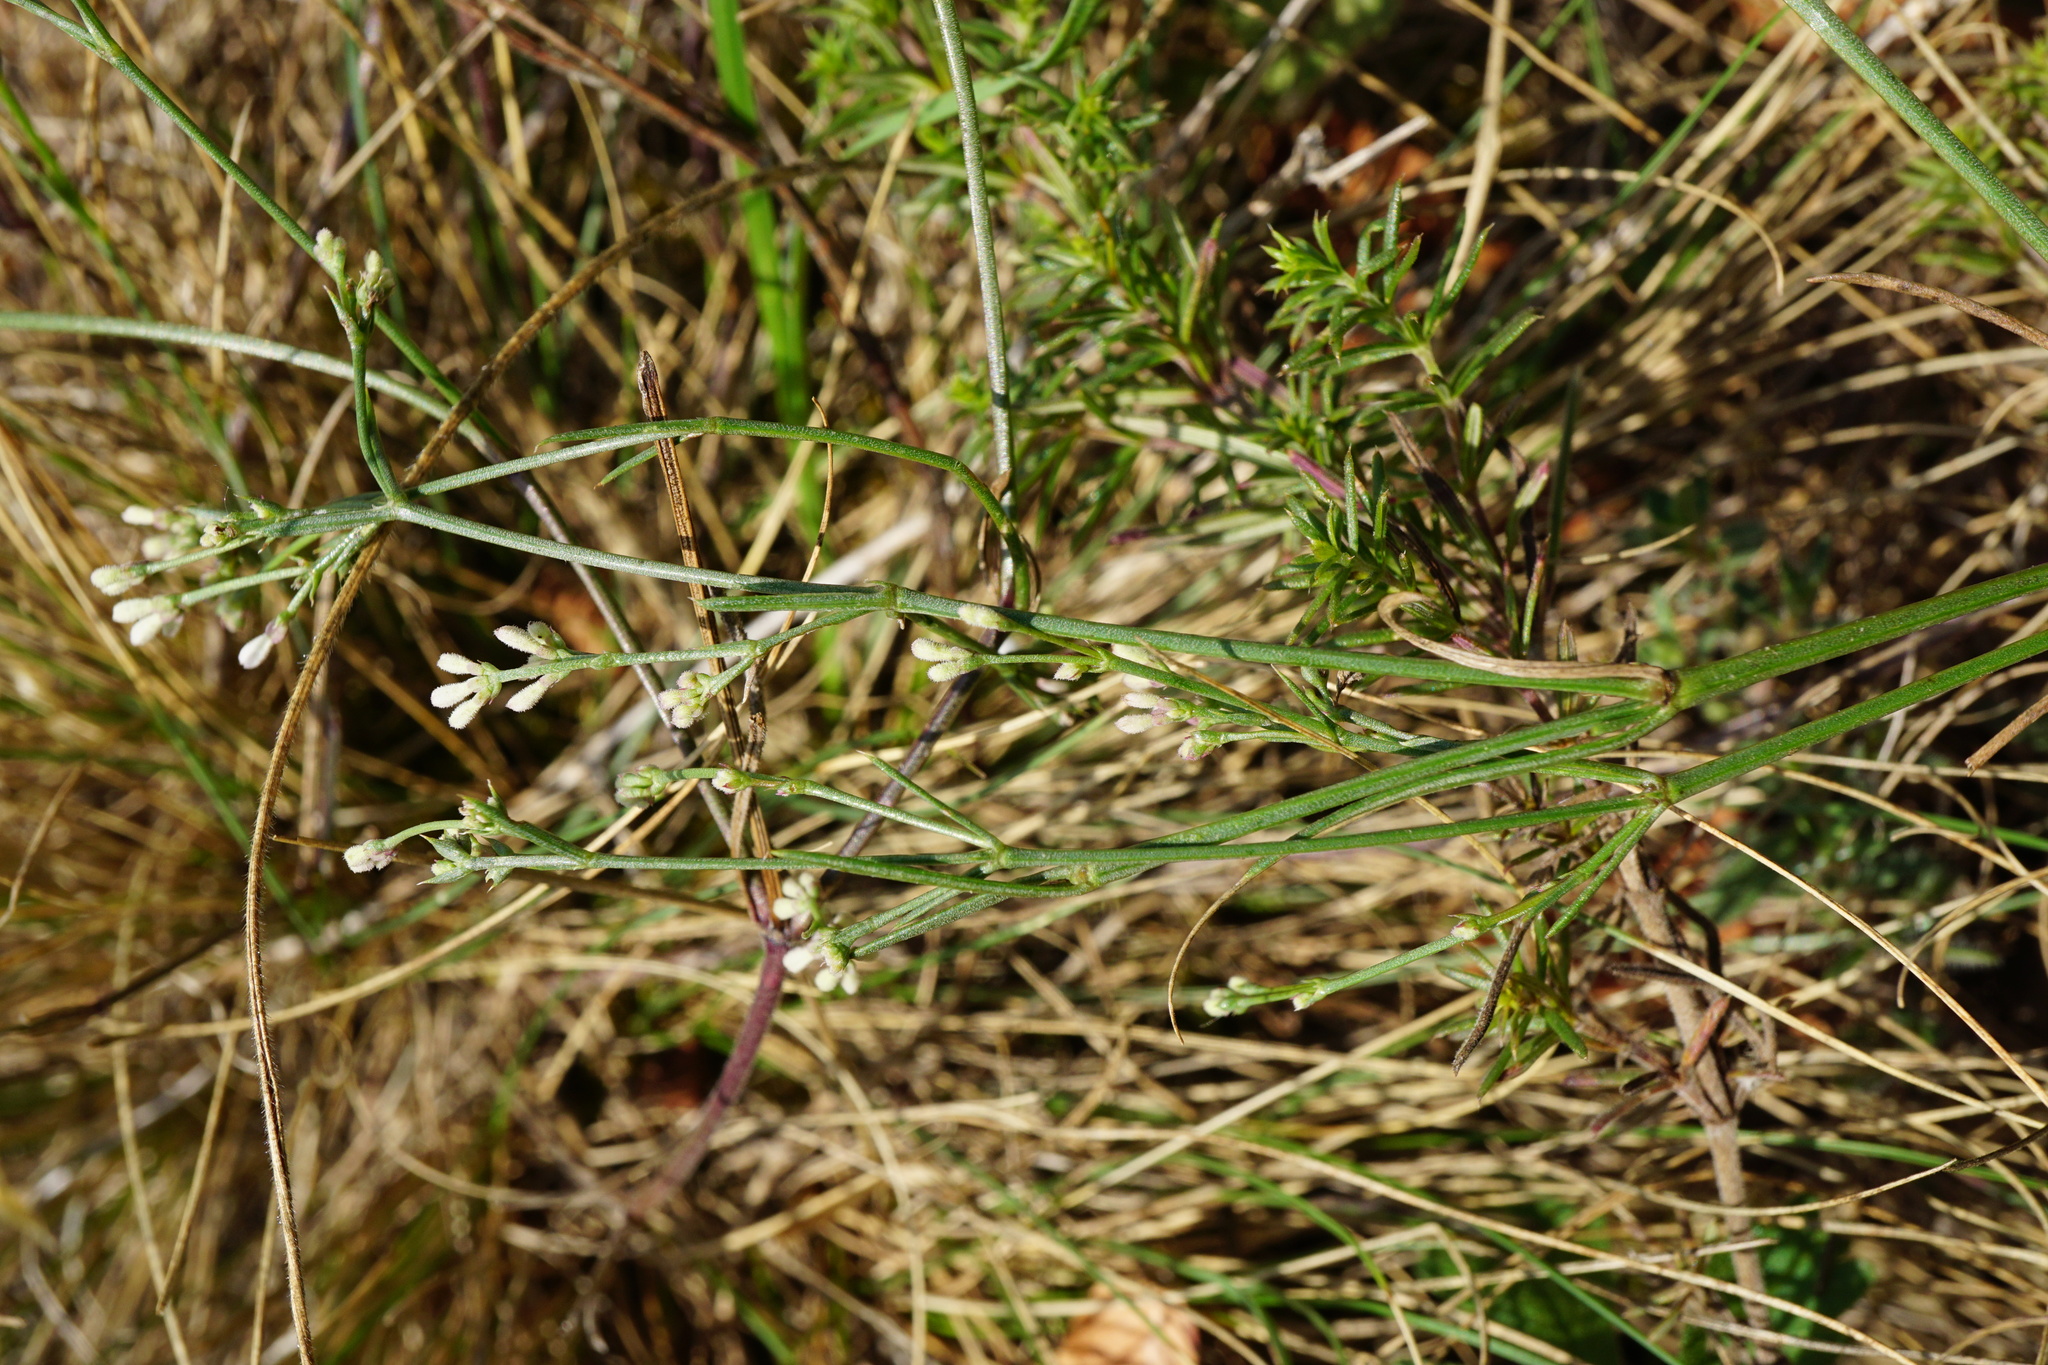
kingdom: Plantae
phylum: Tracheophyta
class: Magnoliopsida
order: Gentianales
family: Rubiaceae
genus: Cynanchica
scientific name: Cynanchica pyrenaica
